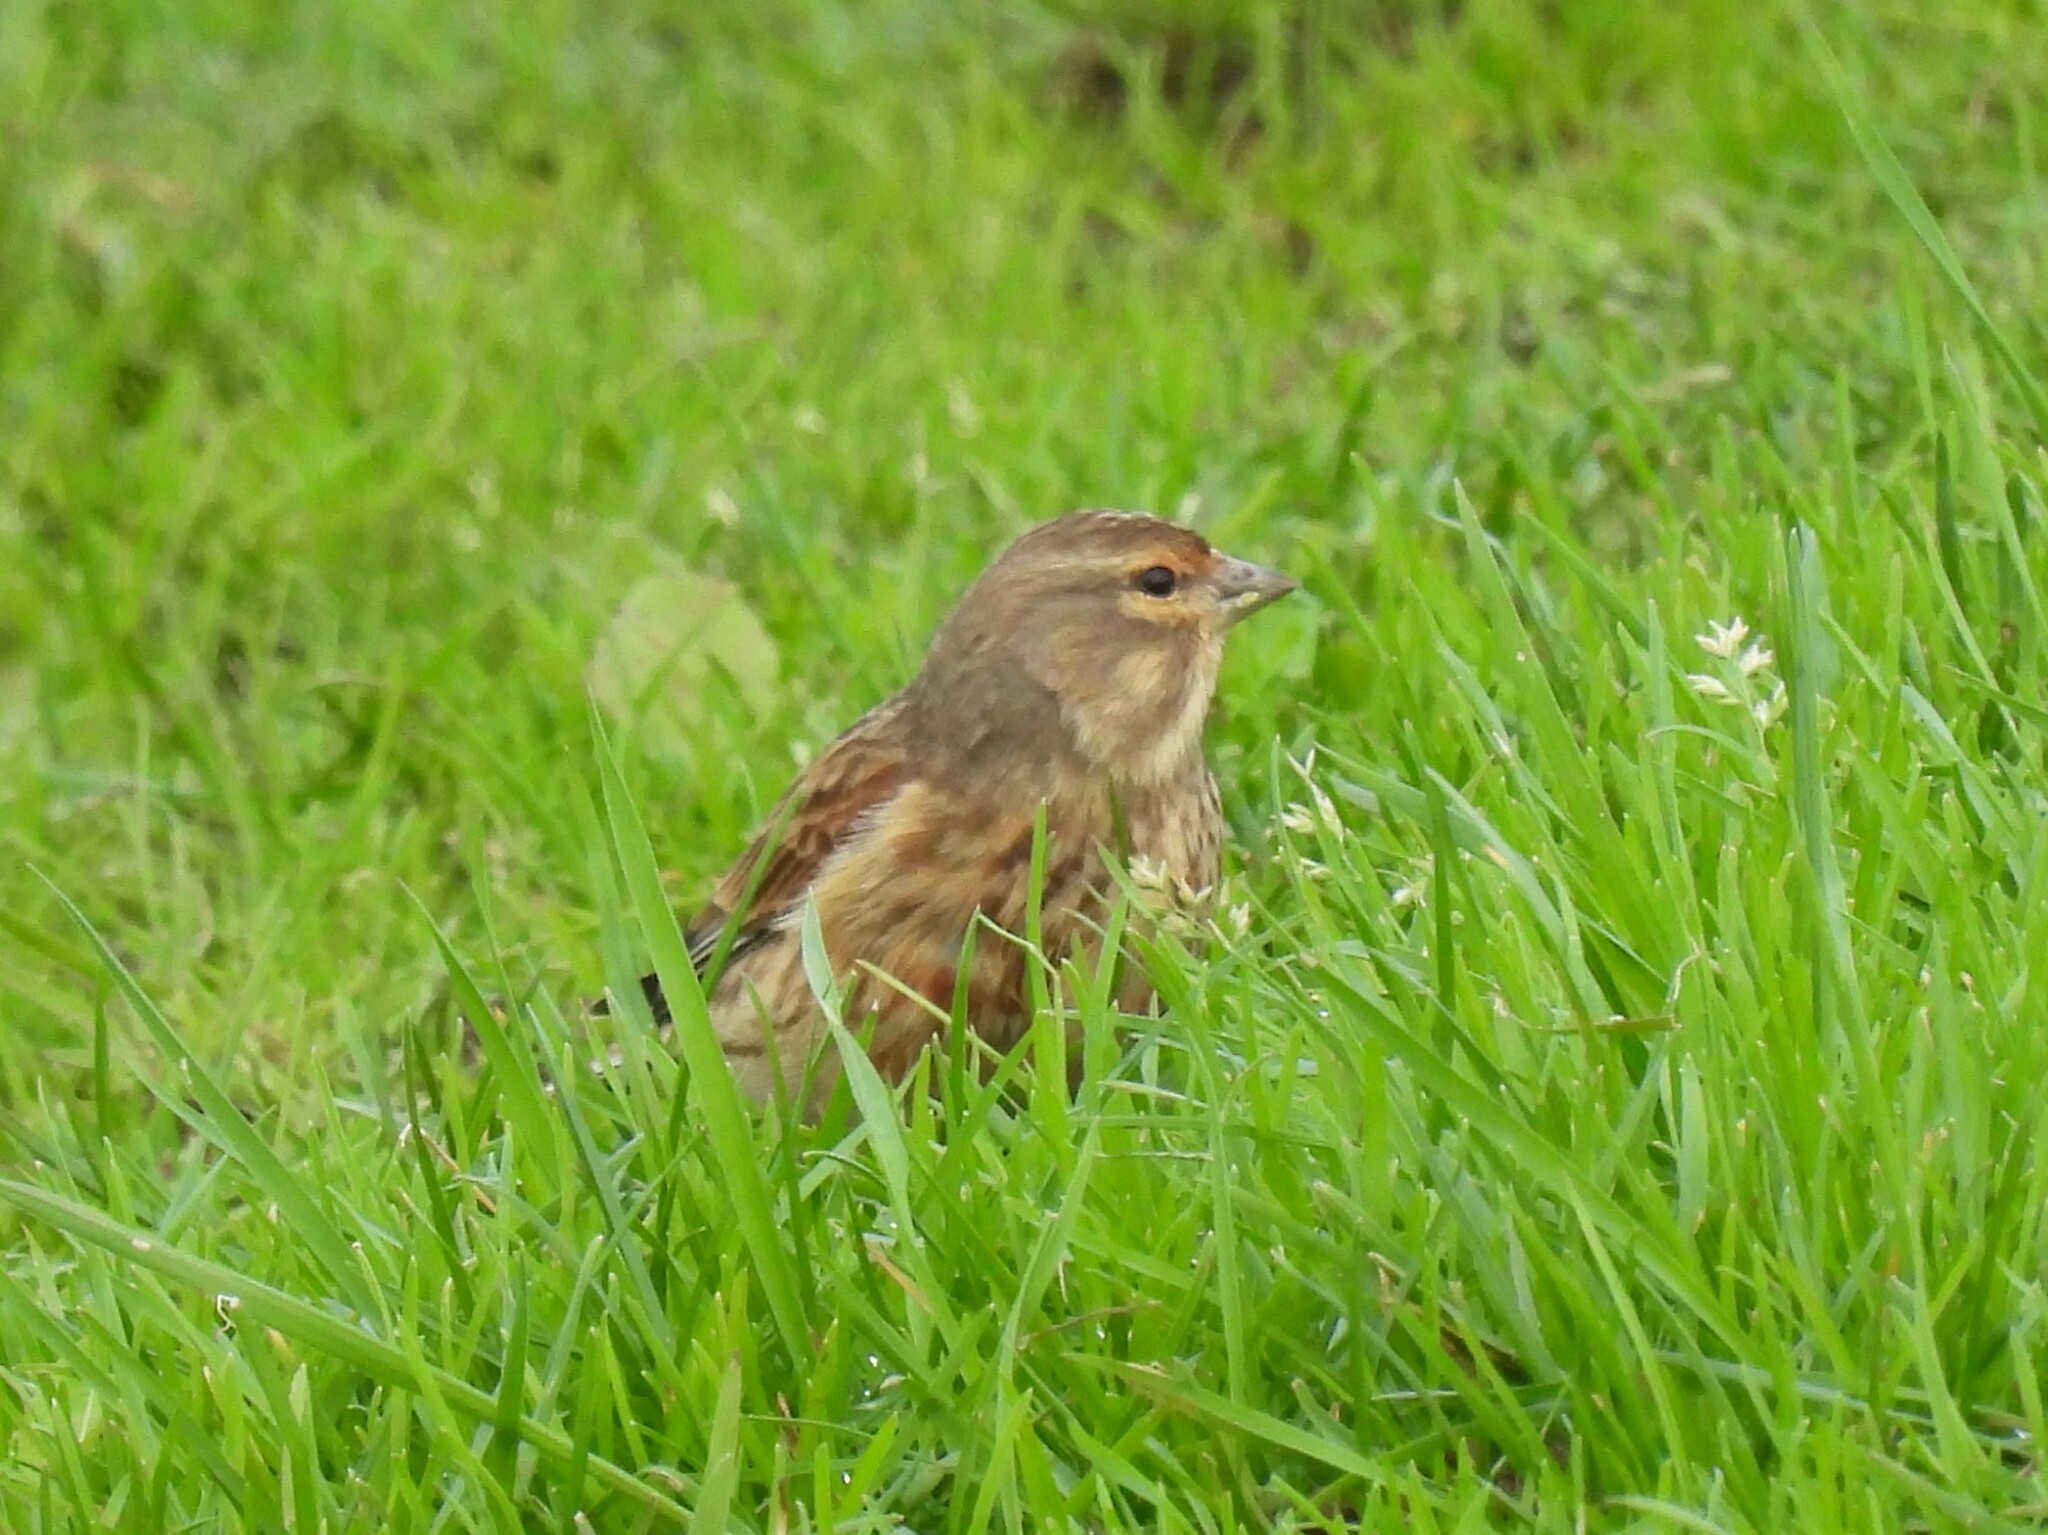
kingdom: Animalia
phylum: Chordata
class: Aves
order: Passeriformes
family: Fringillidae
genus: Linaria
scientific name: Linaria cannabina
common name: Common linnet
